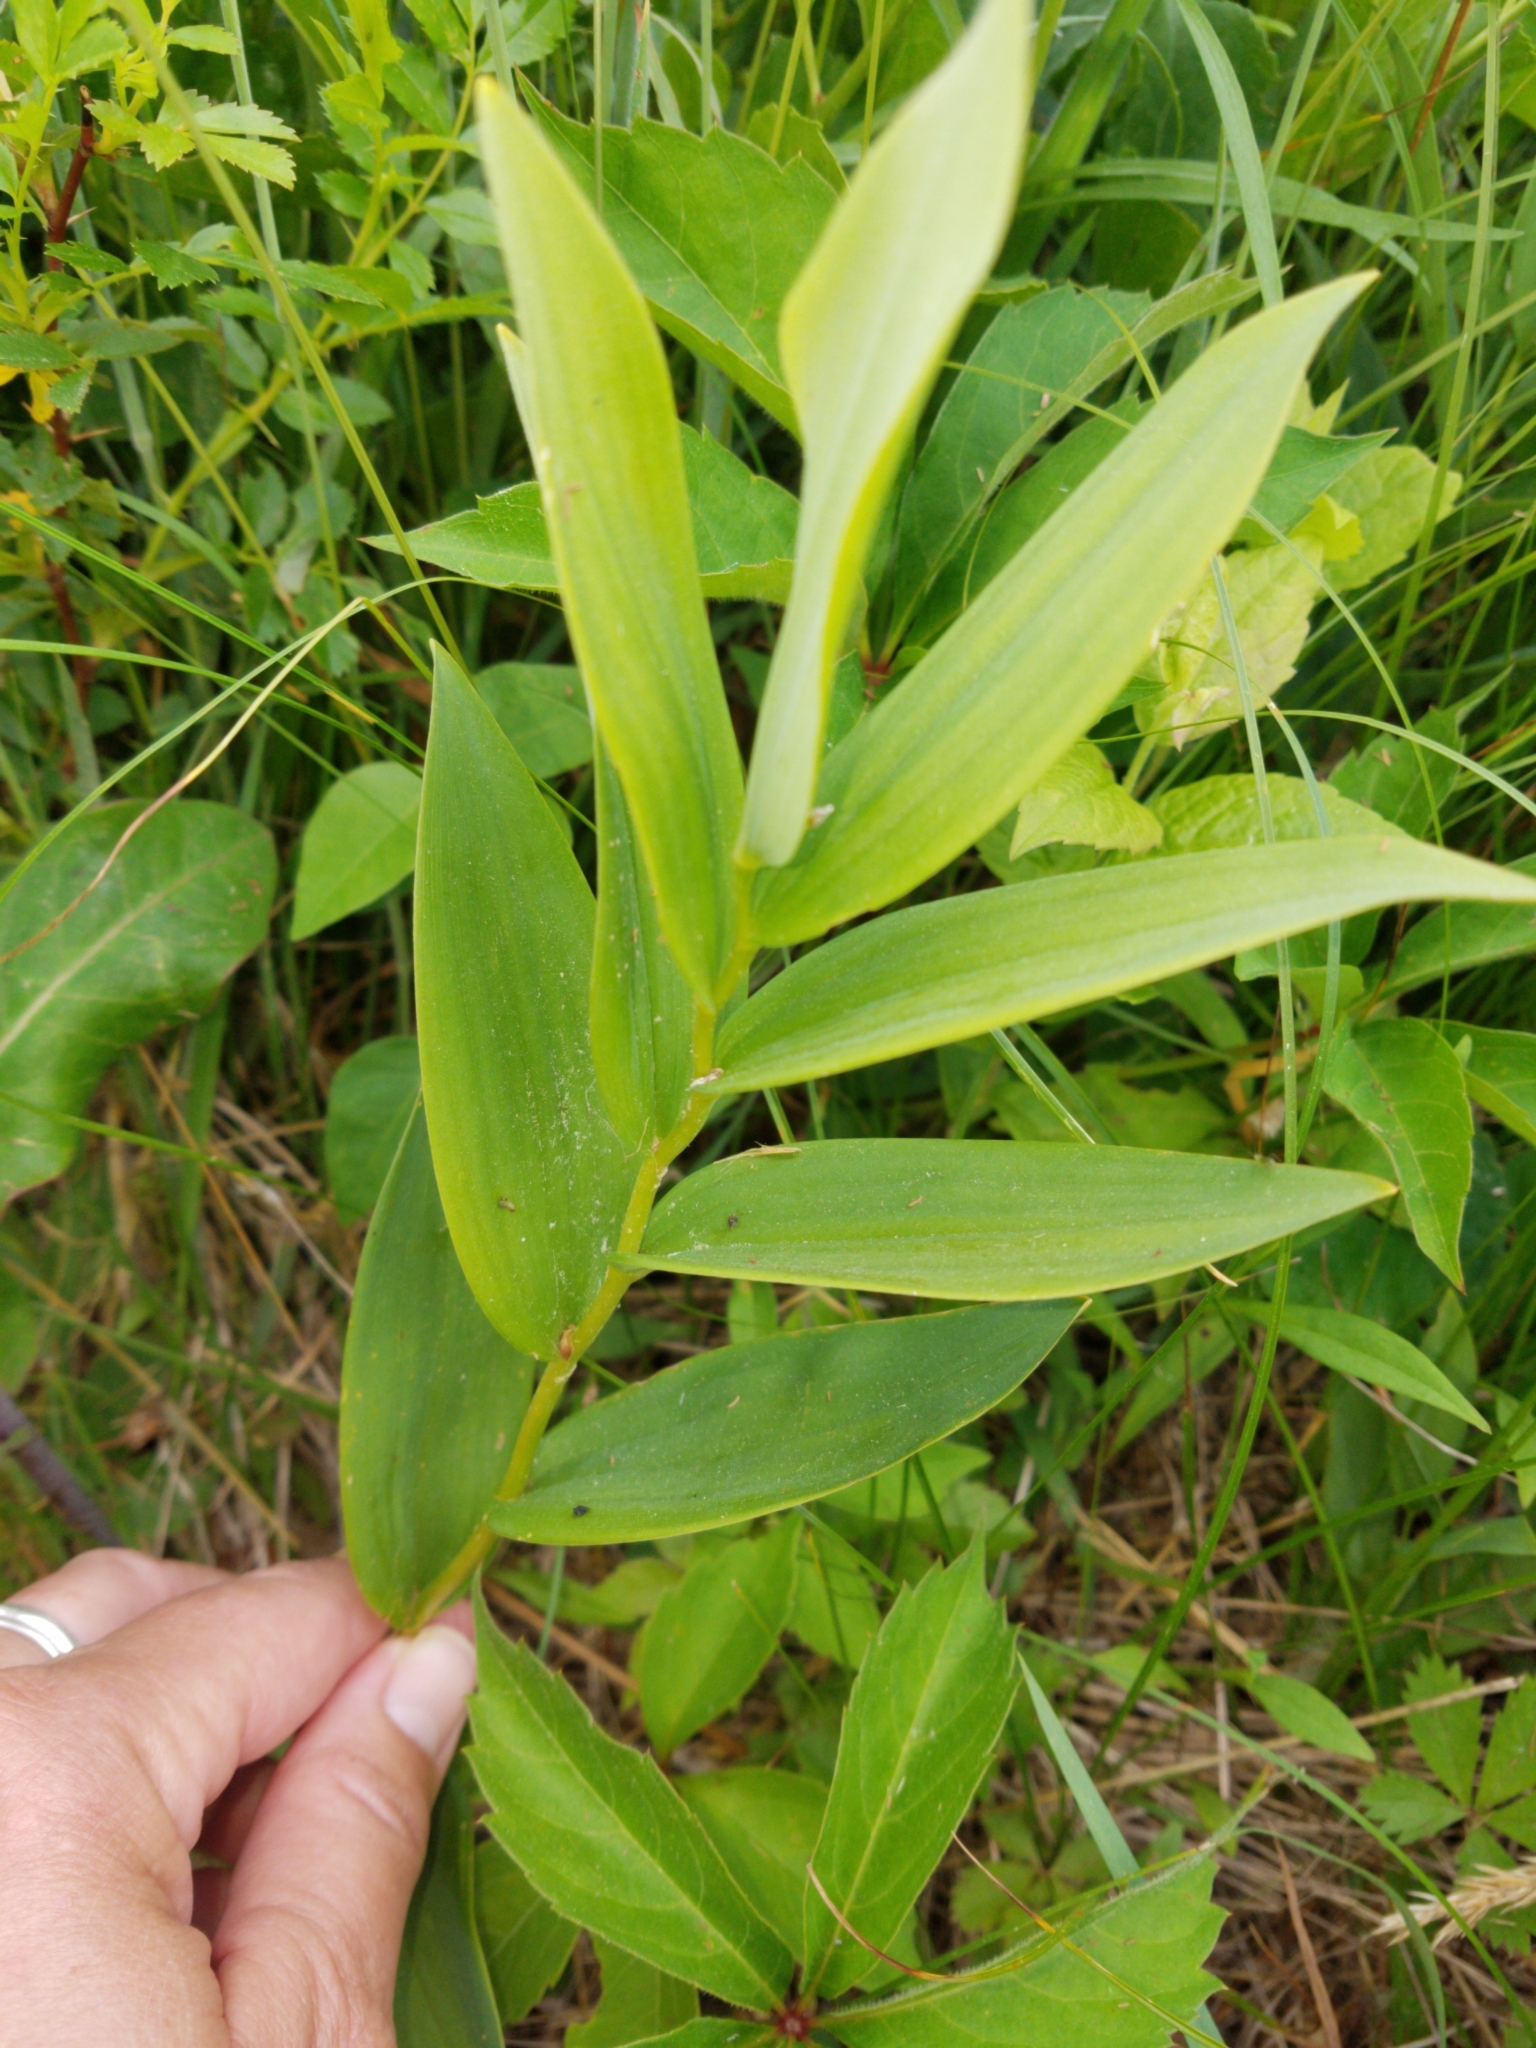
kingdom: Plantae
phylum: Tracheophyta
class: Liliopsida
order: Asparagales
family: Asparagaceae
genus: Maianthemum
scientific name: Maianthemum stellatum
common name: Little false solomon's seal
